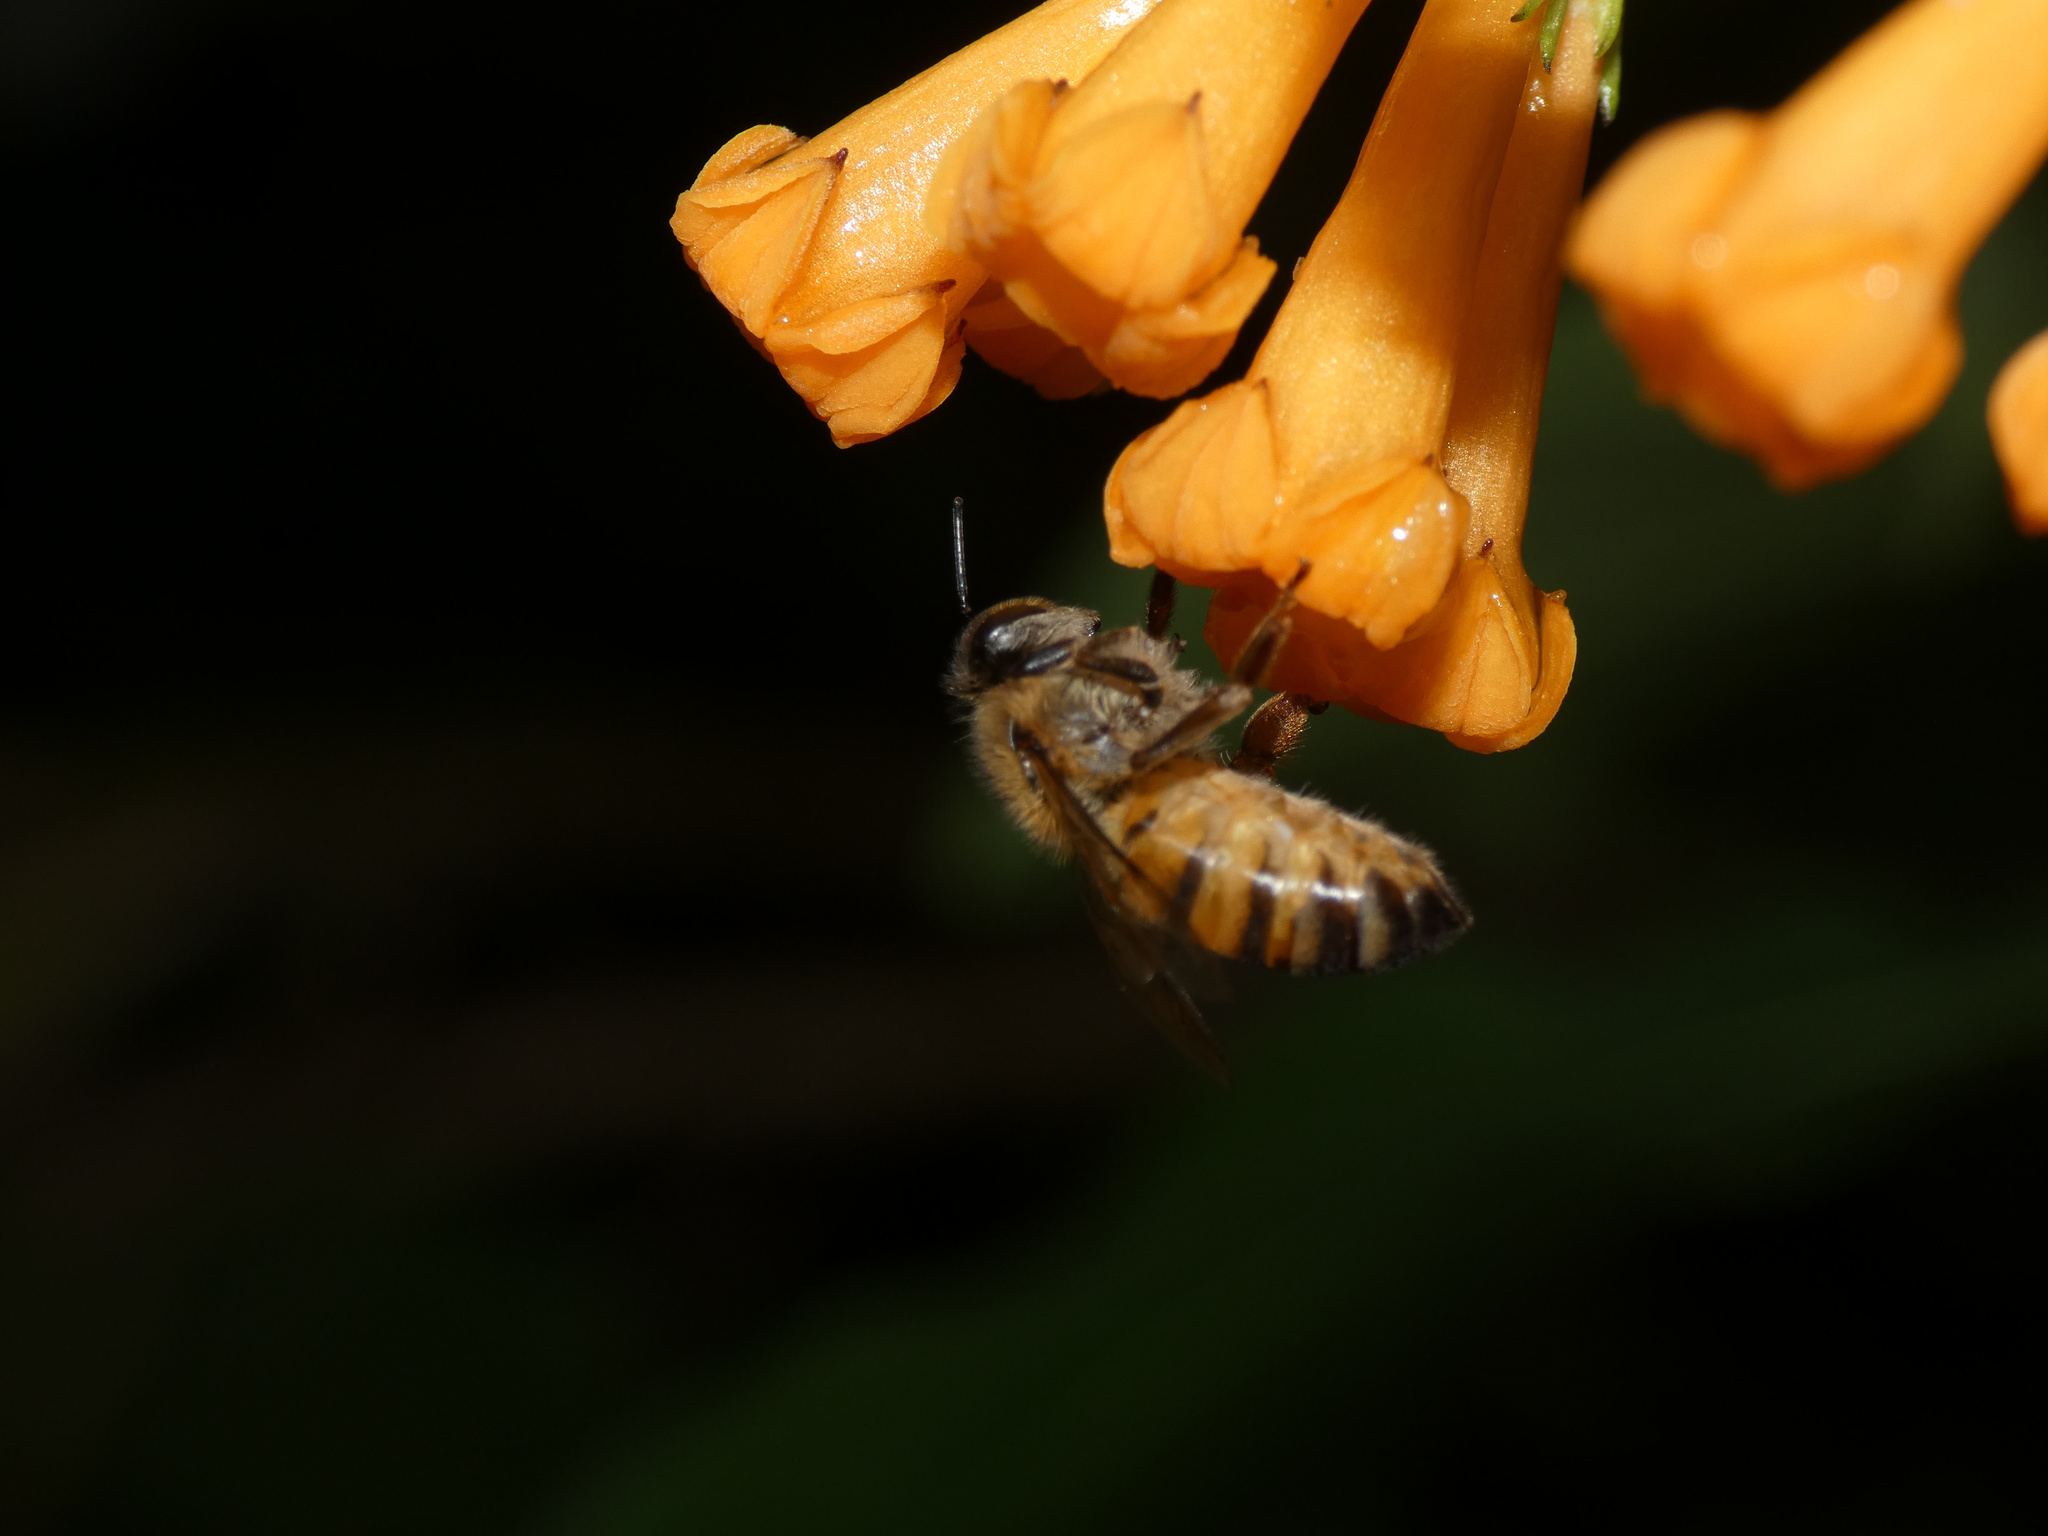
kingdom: Animalia
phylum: Arthropoda
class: Insecta
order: Hymenoptera
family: Apidae
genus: Apis
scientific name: Apis mellifera
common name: Honey bee
